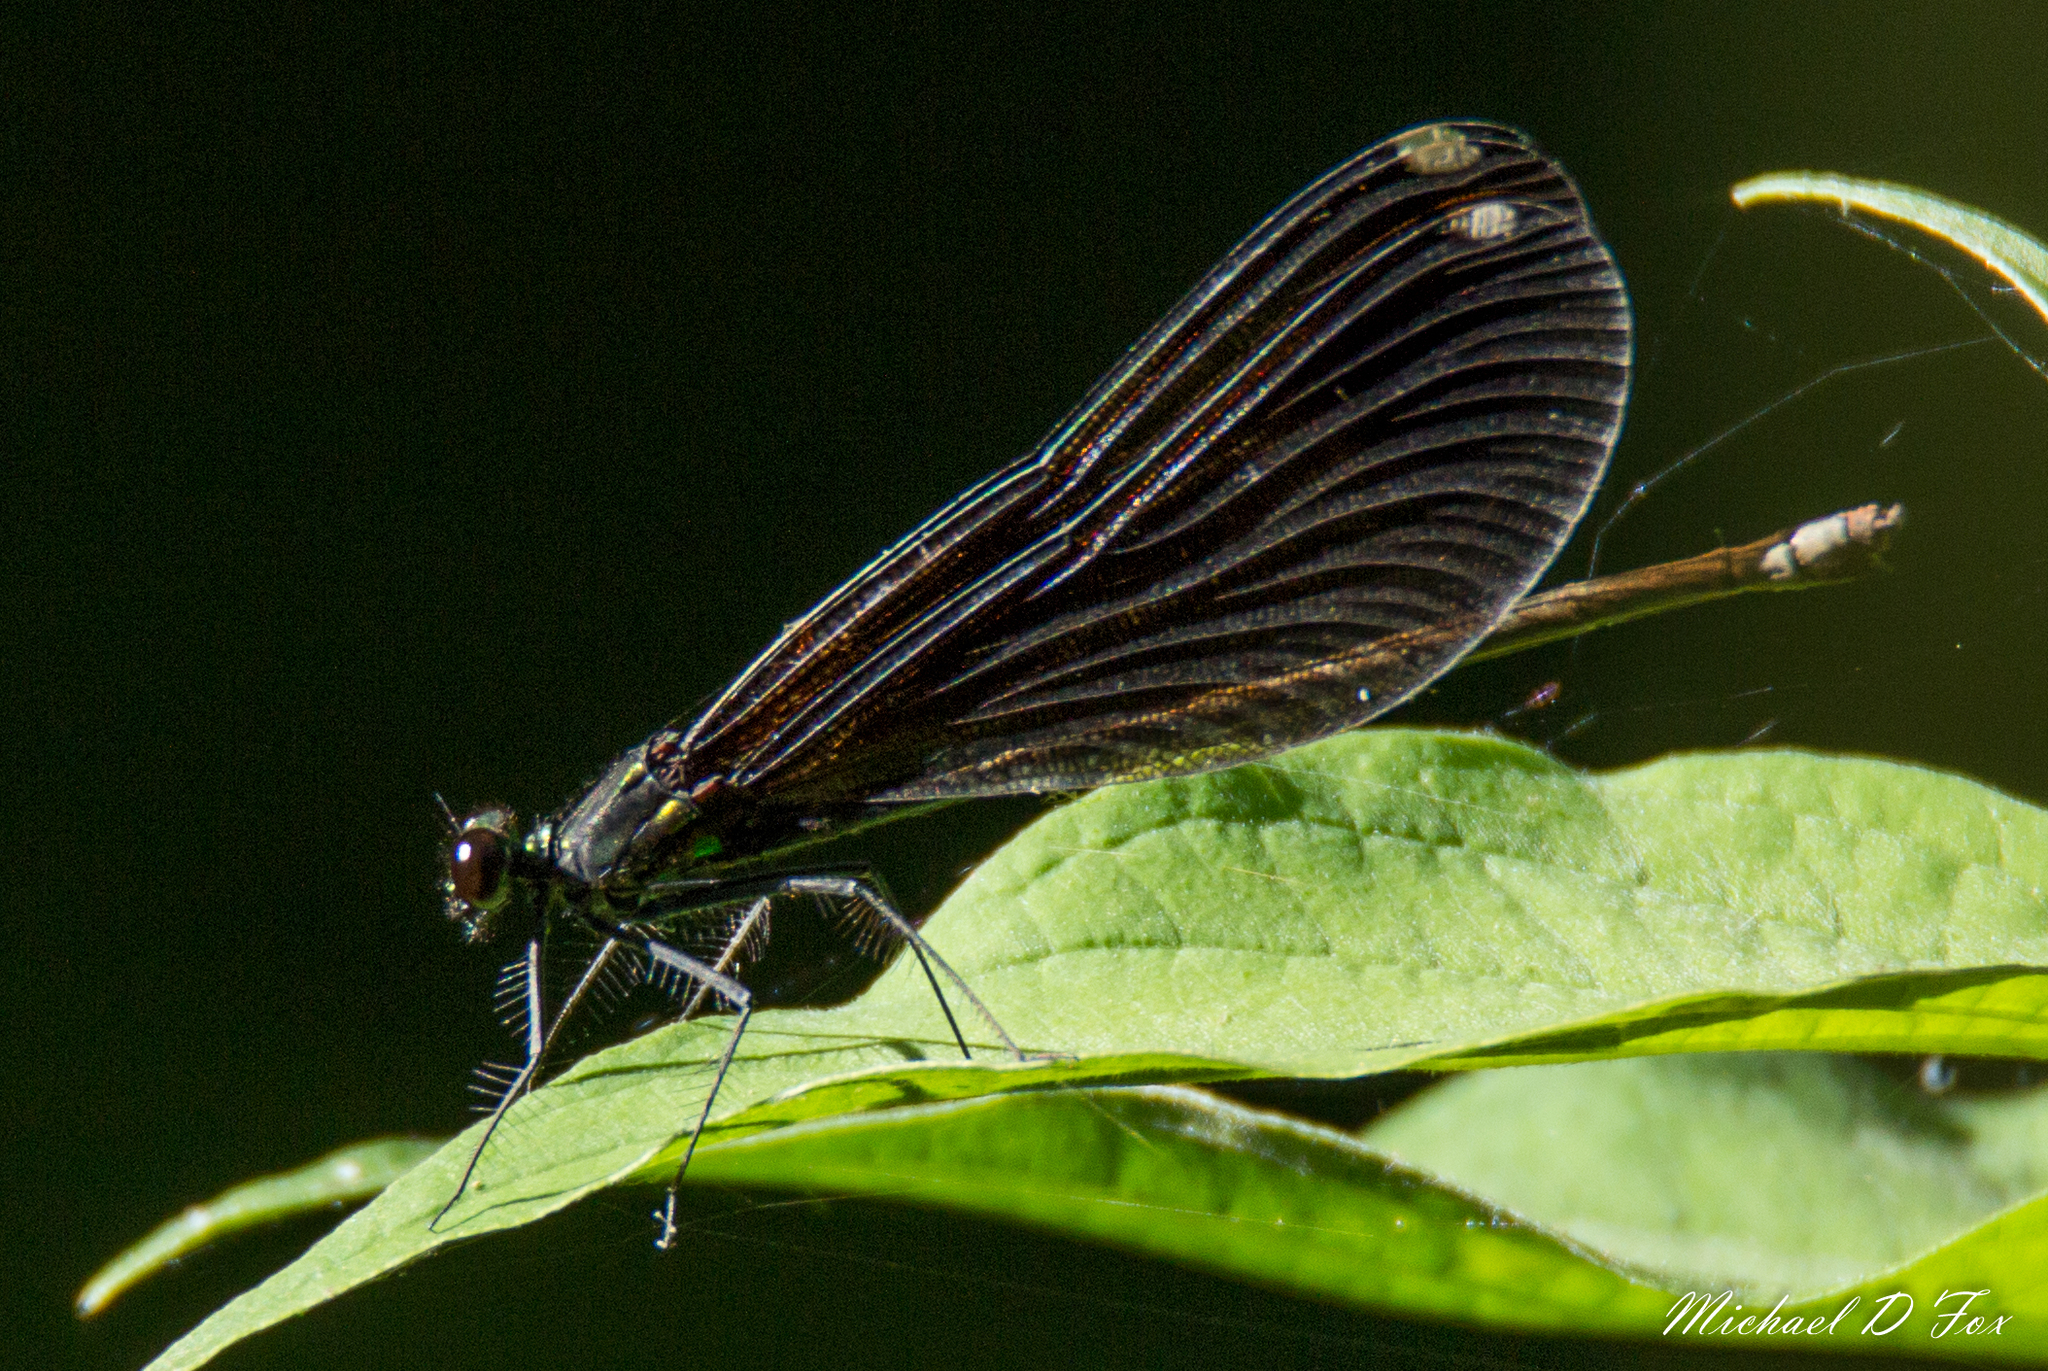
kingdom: Animalia
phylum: Arthropoda
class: Insecta
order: Odonata
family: Calopterygidae
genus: Calopteryx
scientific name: Calopteryx maculata
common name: Ebony jewelwing
